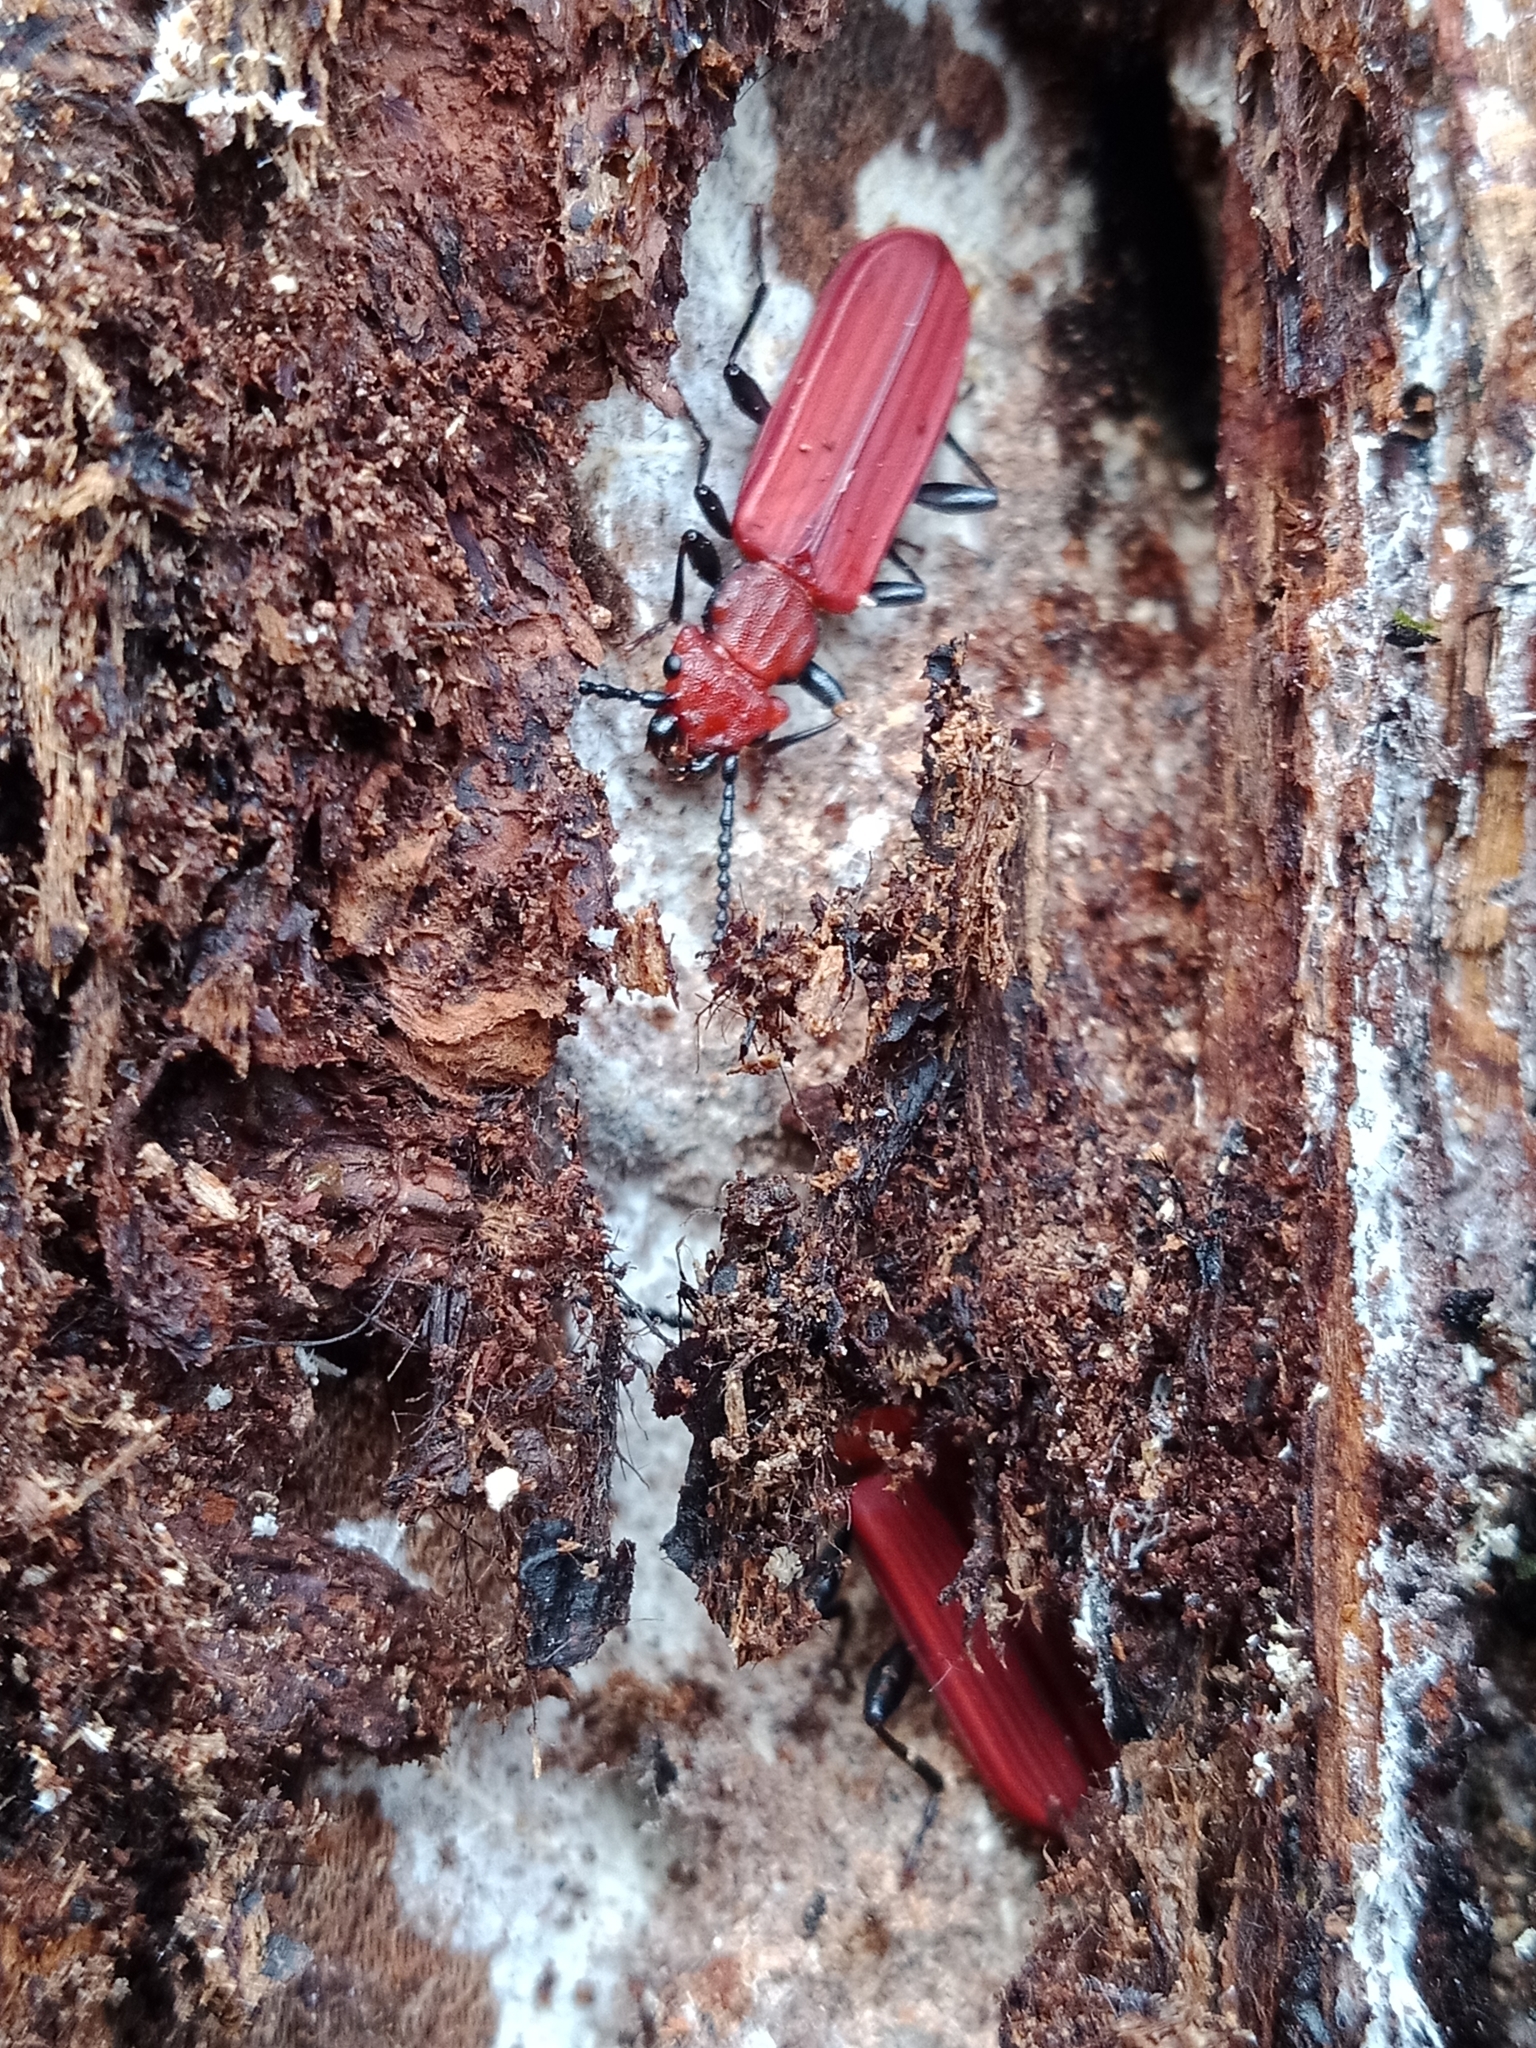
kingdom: Animalia
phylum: Arthropoda
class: Insecta
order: Coleoptera
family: Cucujidae
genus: Cucujus
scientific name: Cucujus cinnaberinus
